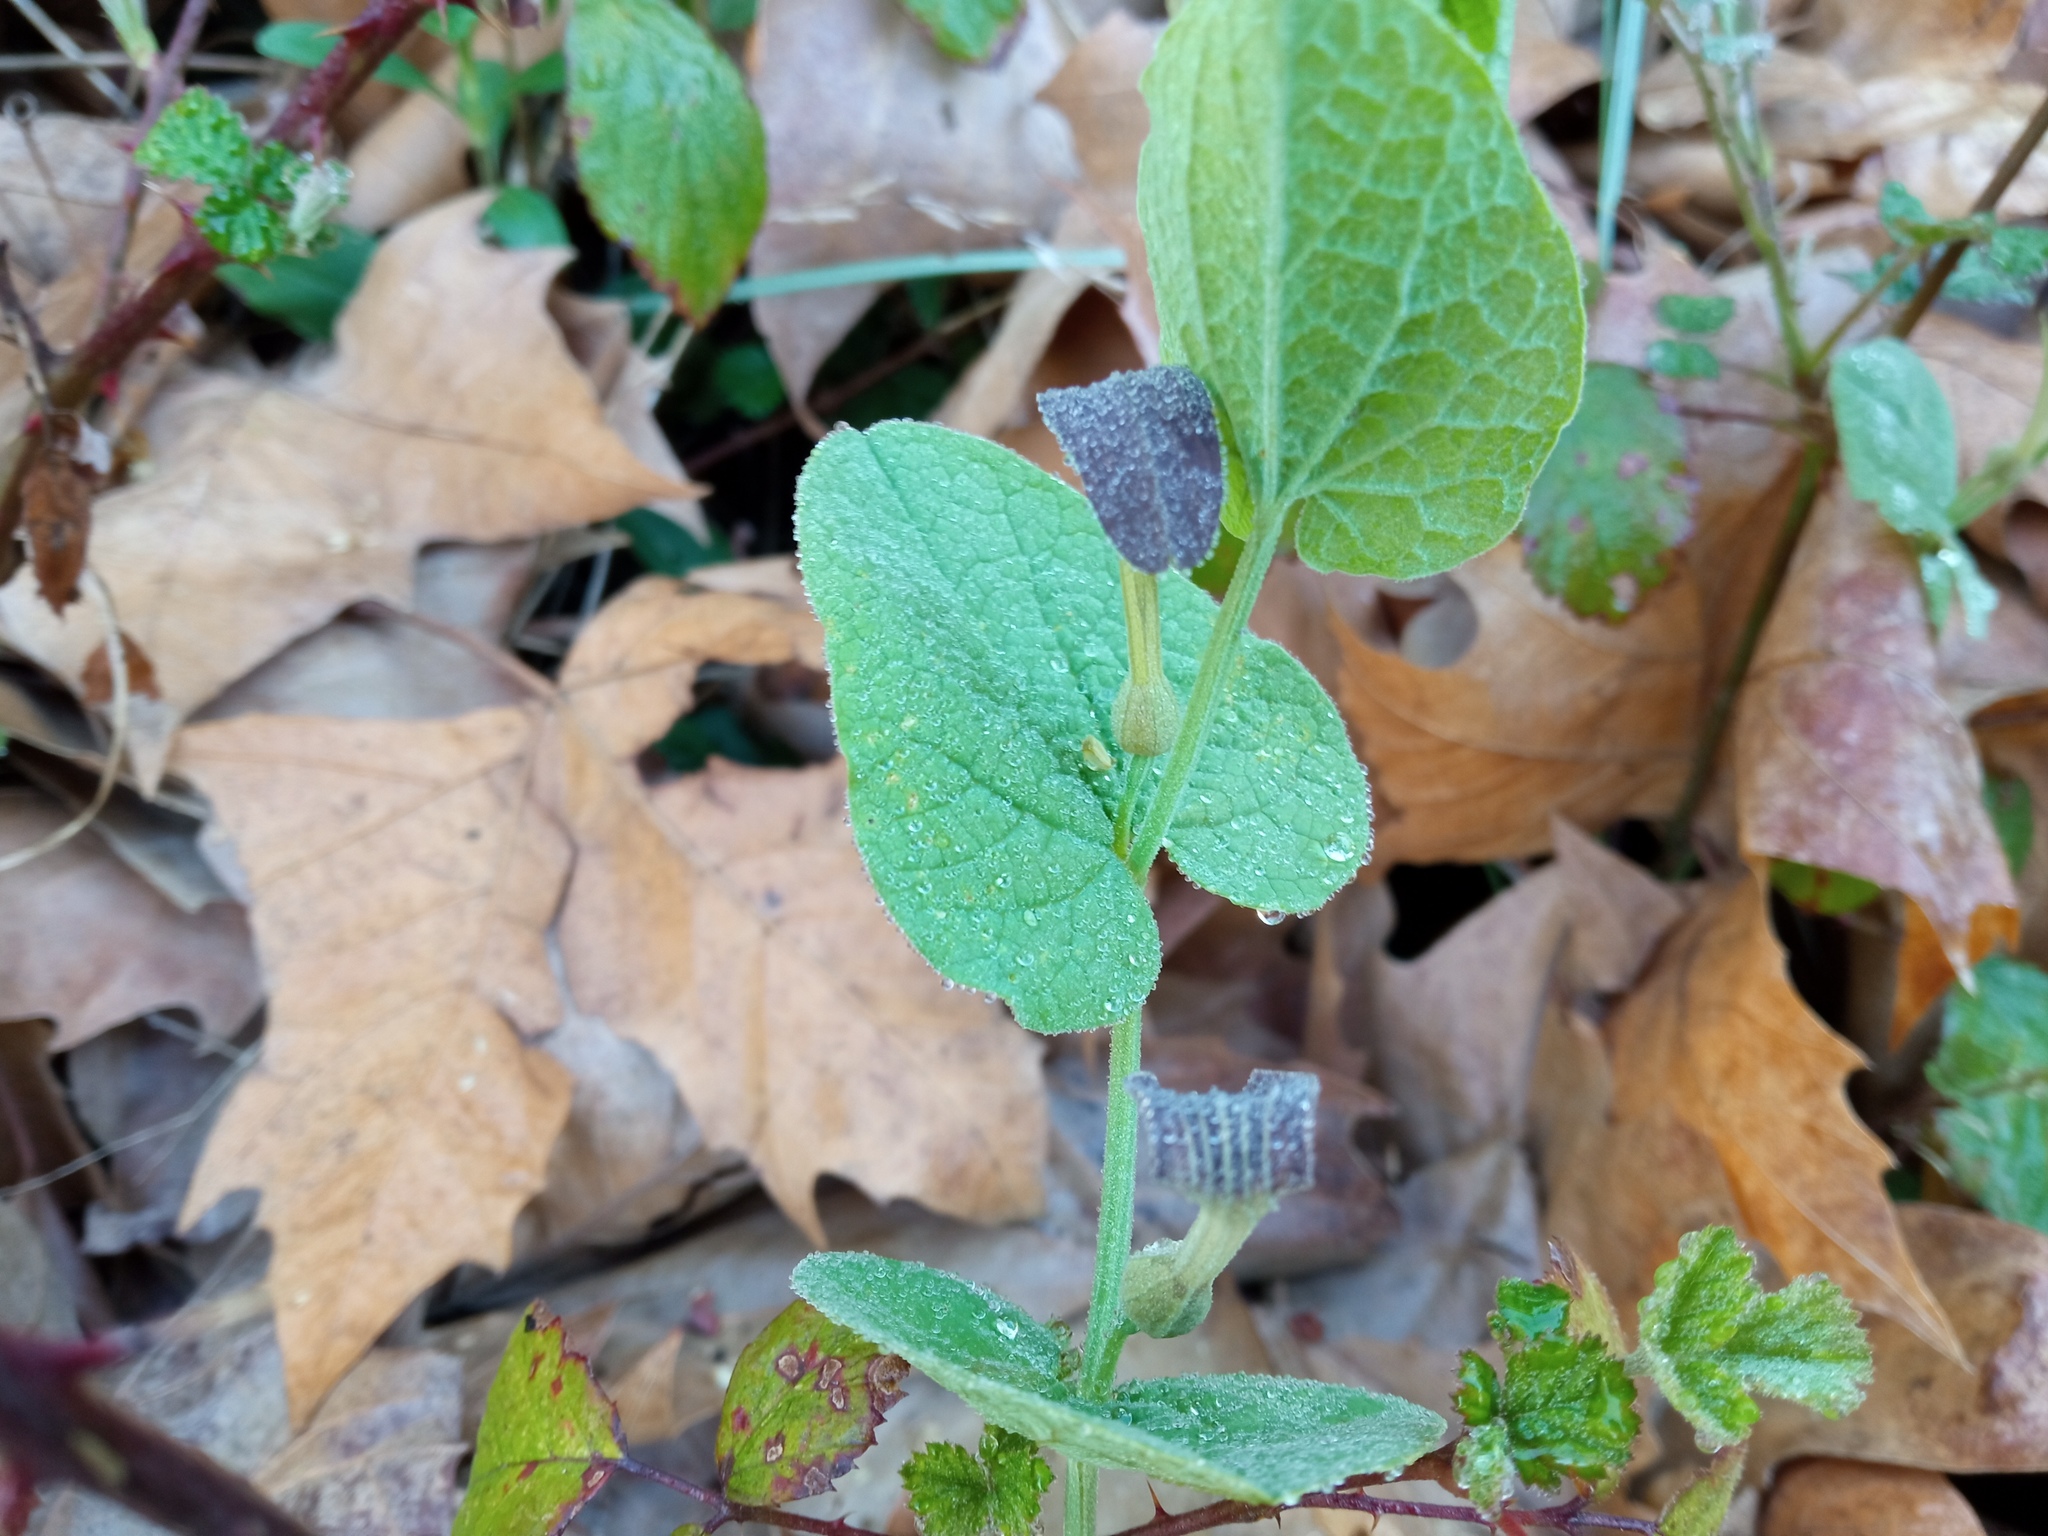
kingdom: Plantae
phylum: Tracheophyta
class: Magnoliopsida
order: Piperales
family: Aristolochiaceae
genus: Aristolochia
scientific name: Aristolochia rotunda
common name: Smearwort
